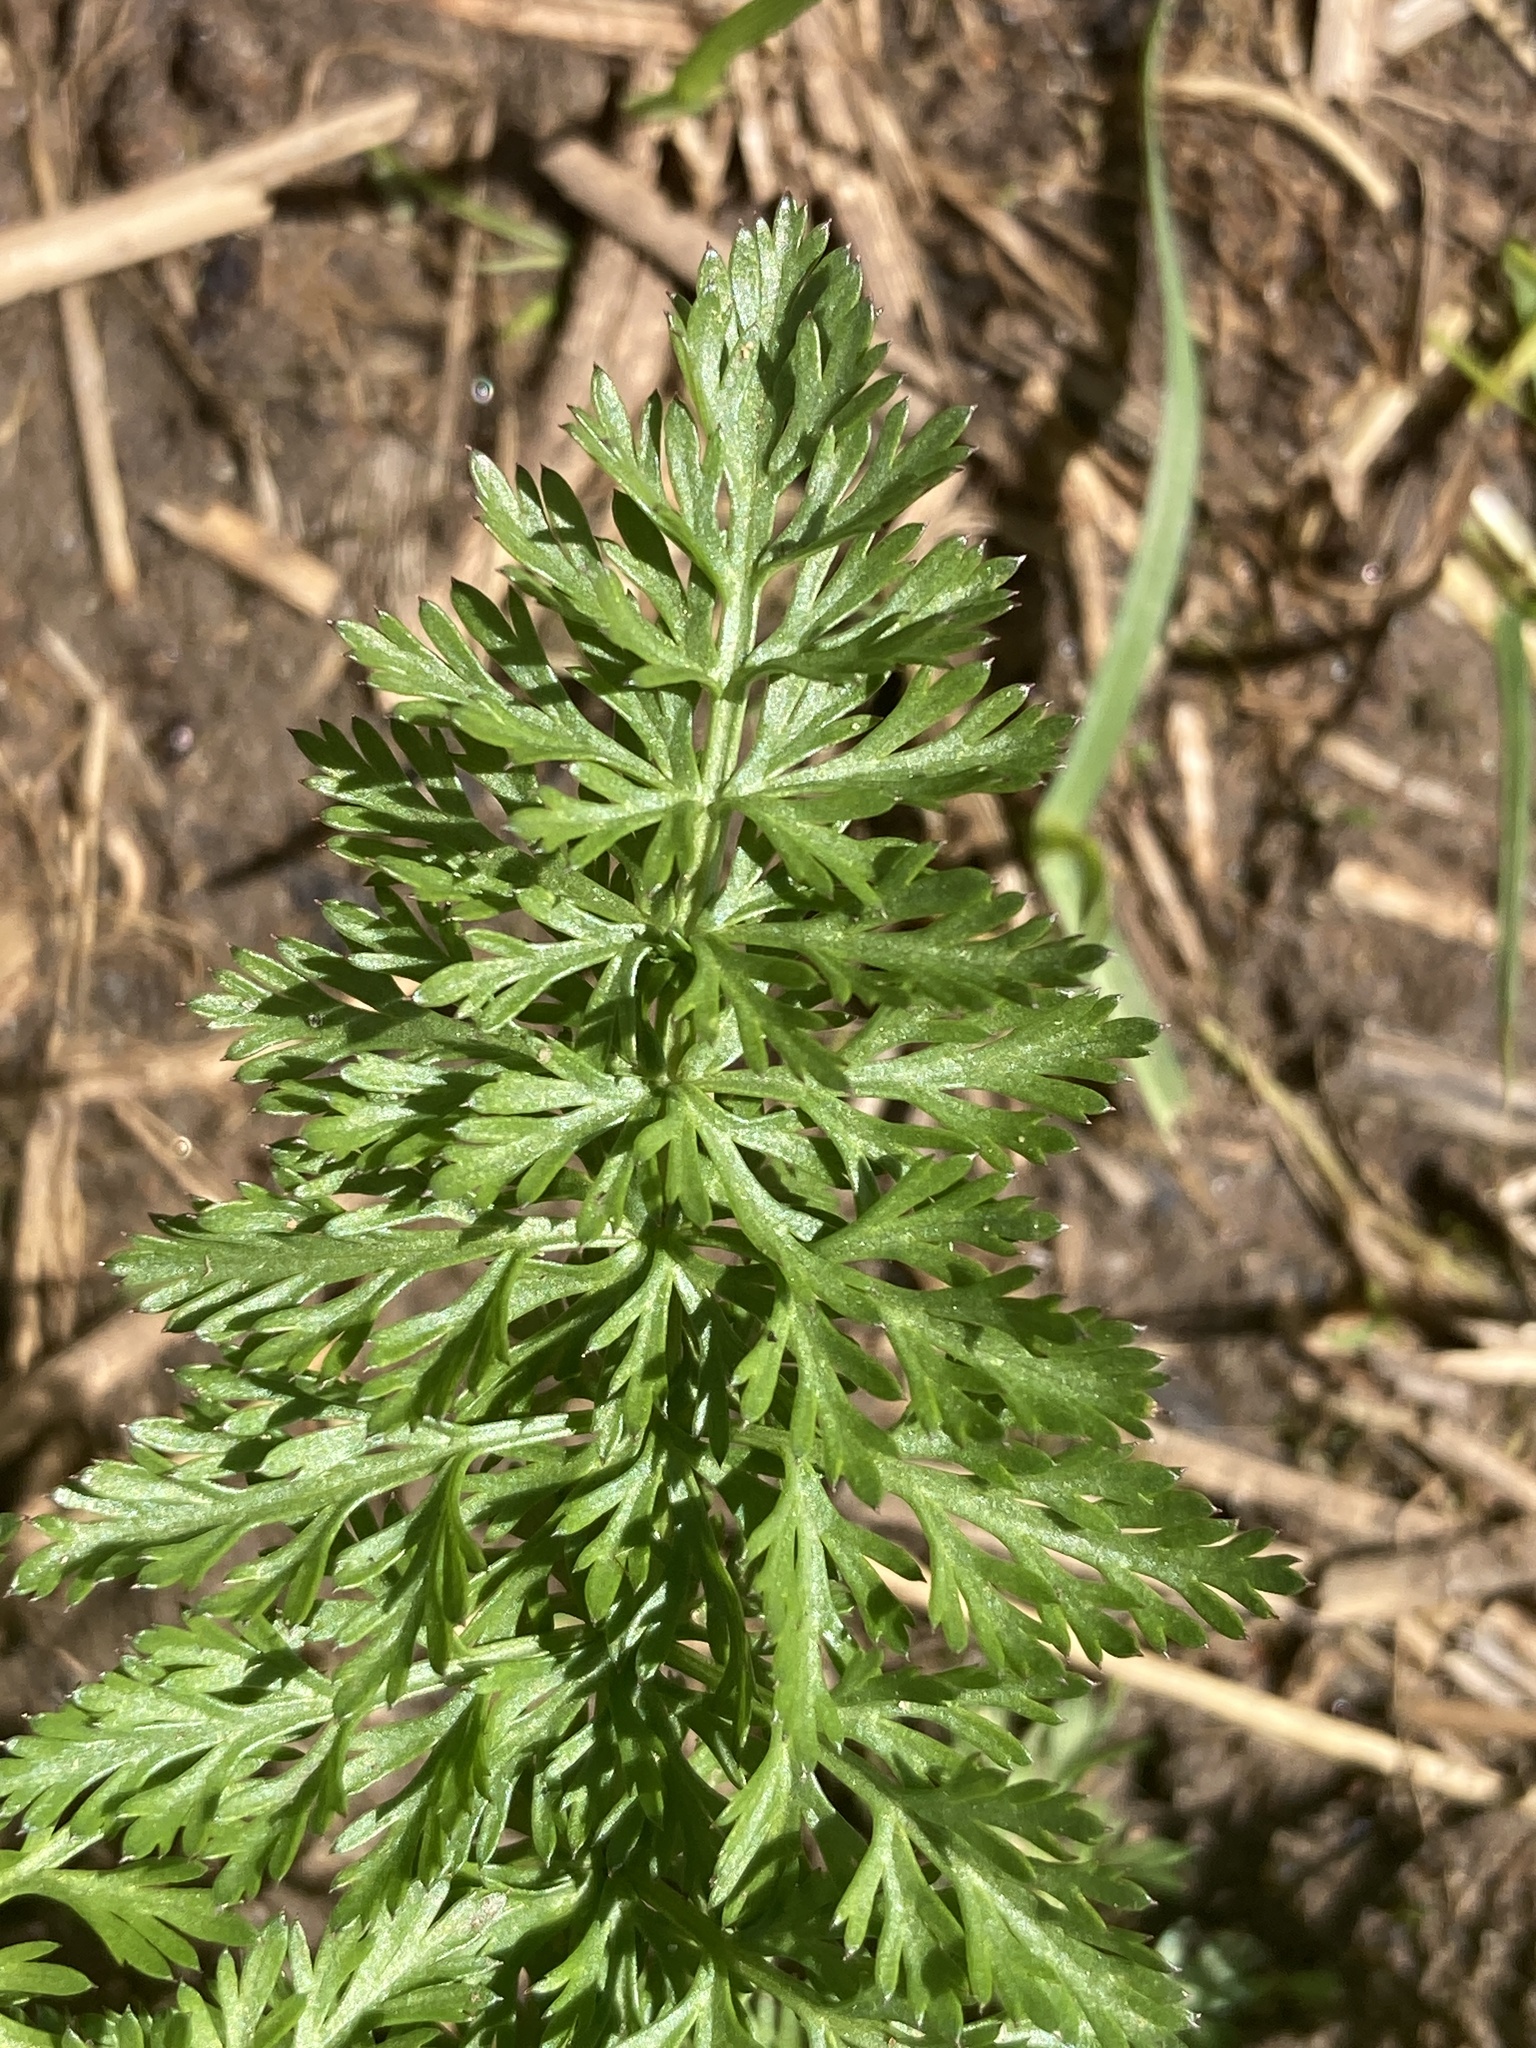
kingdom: Plantae
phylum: Tracheophyta
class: Magnoliopsida
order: Apiales
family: Apiaceae
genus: Carum
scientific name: Carum carvi
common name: Caraway
